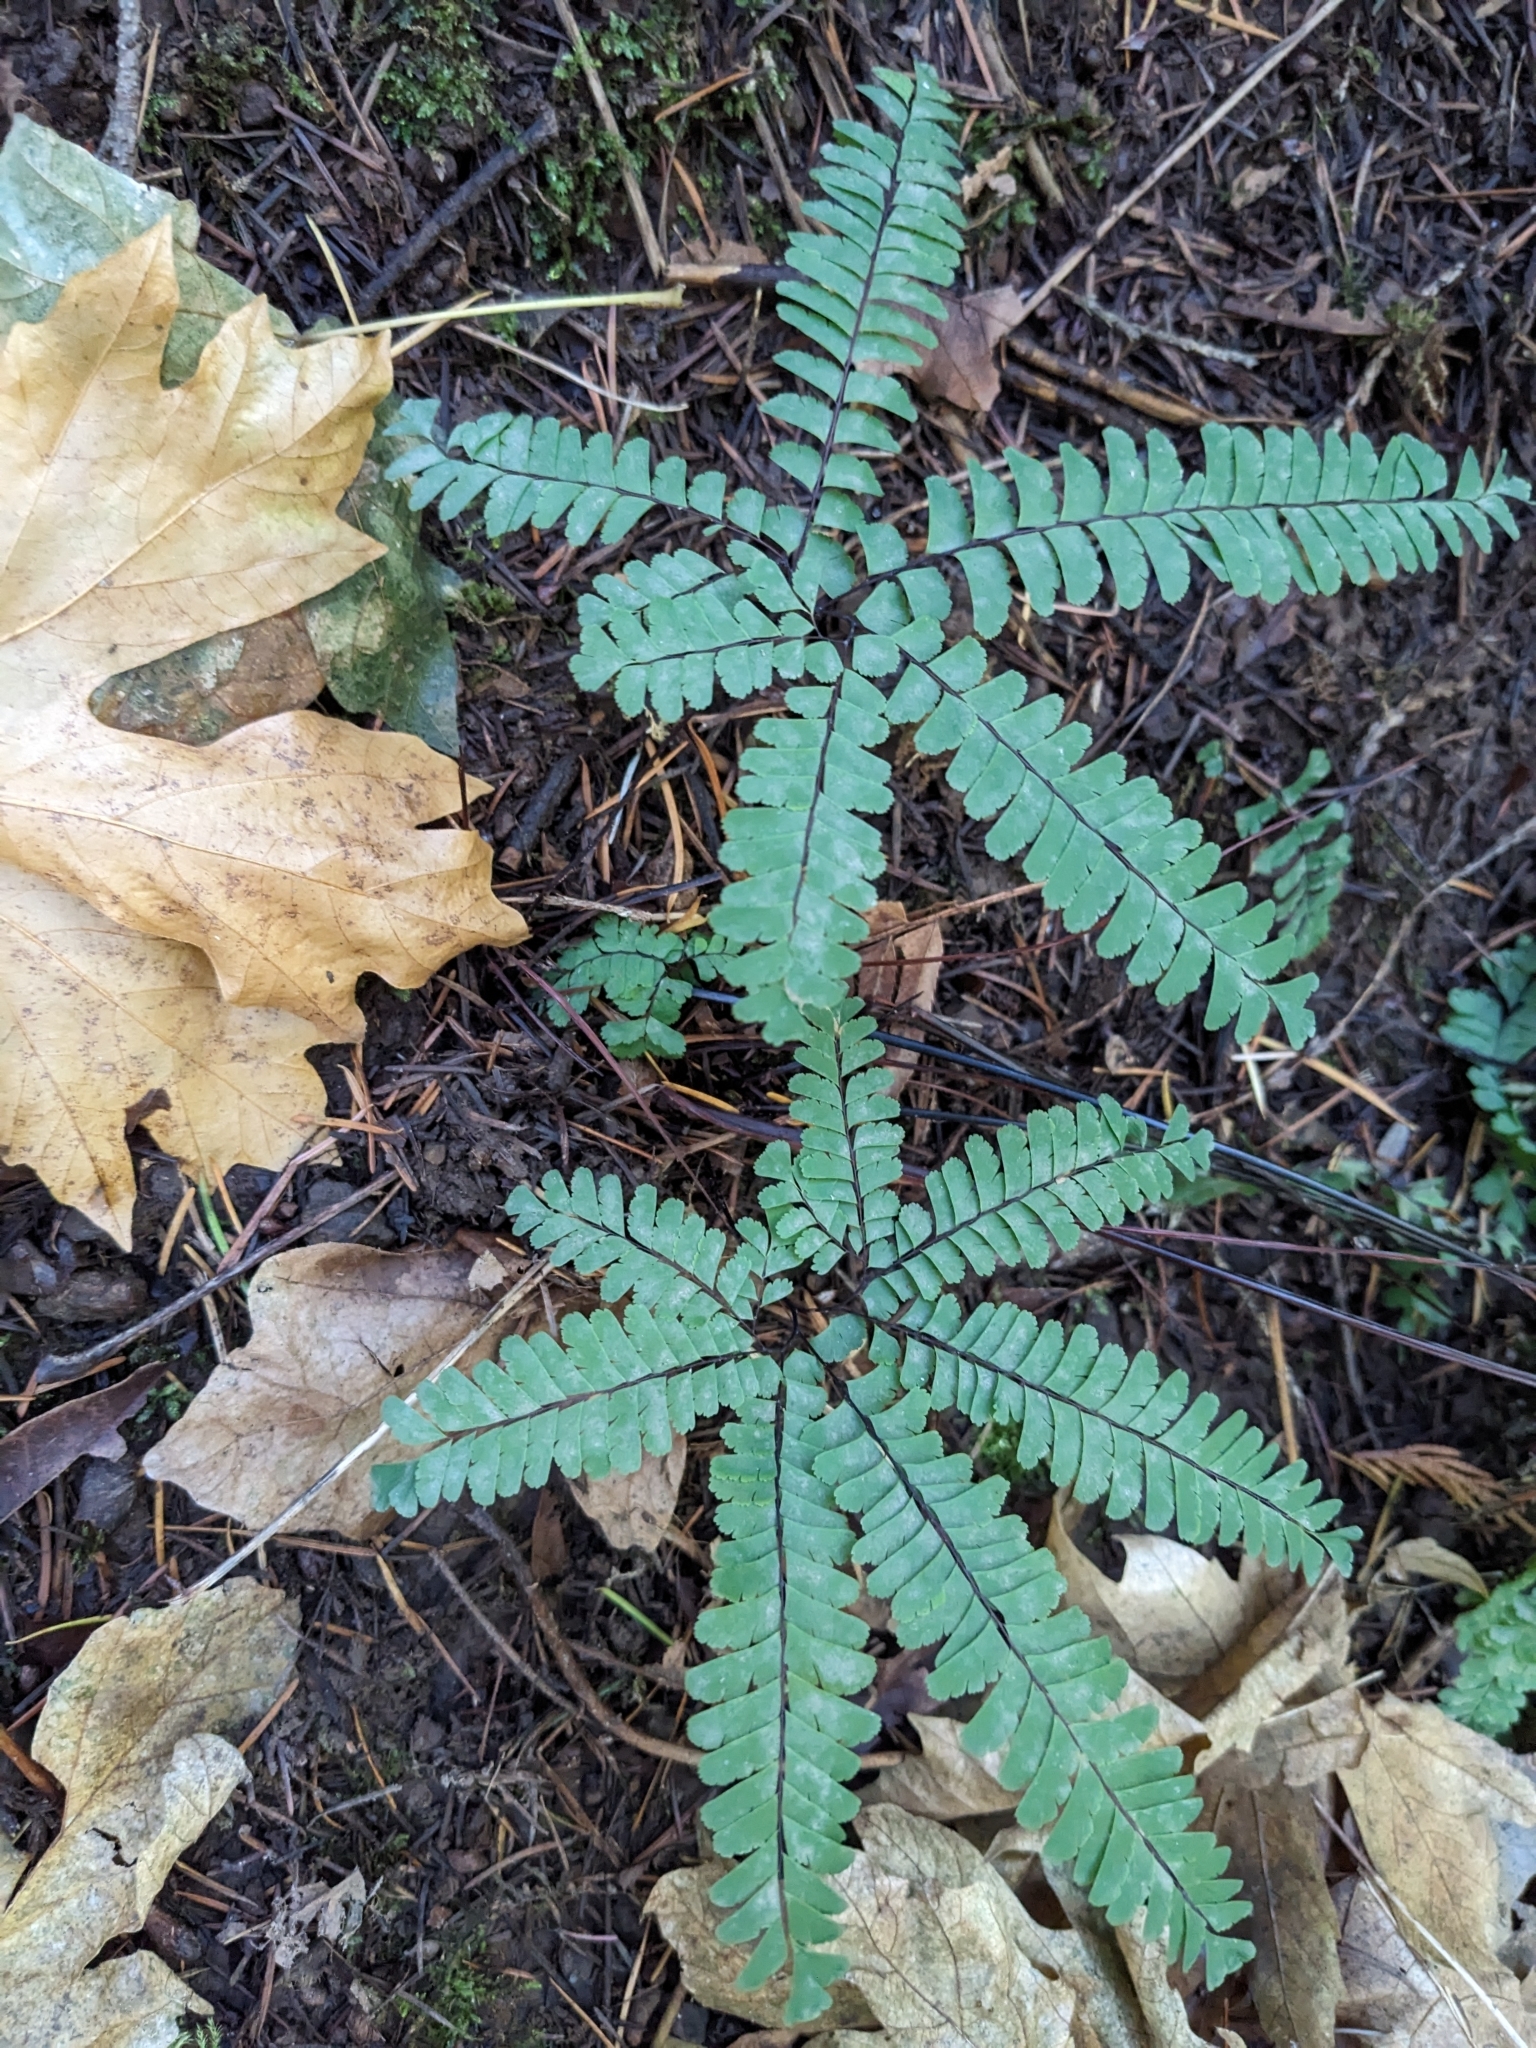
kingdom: Plantae
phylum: Tracheophyta
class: Polypodiopsida
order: Polypodiales
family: Pteridaceae
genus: Adiantum
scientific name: Adiantum aleuticum
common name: Aleutian maidenhair fern
